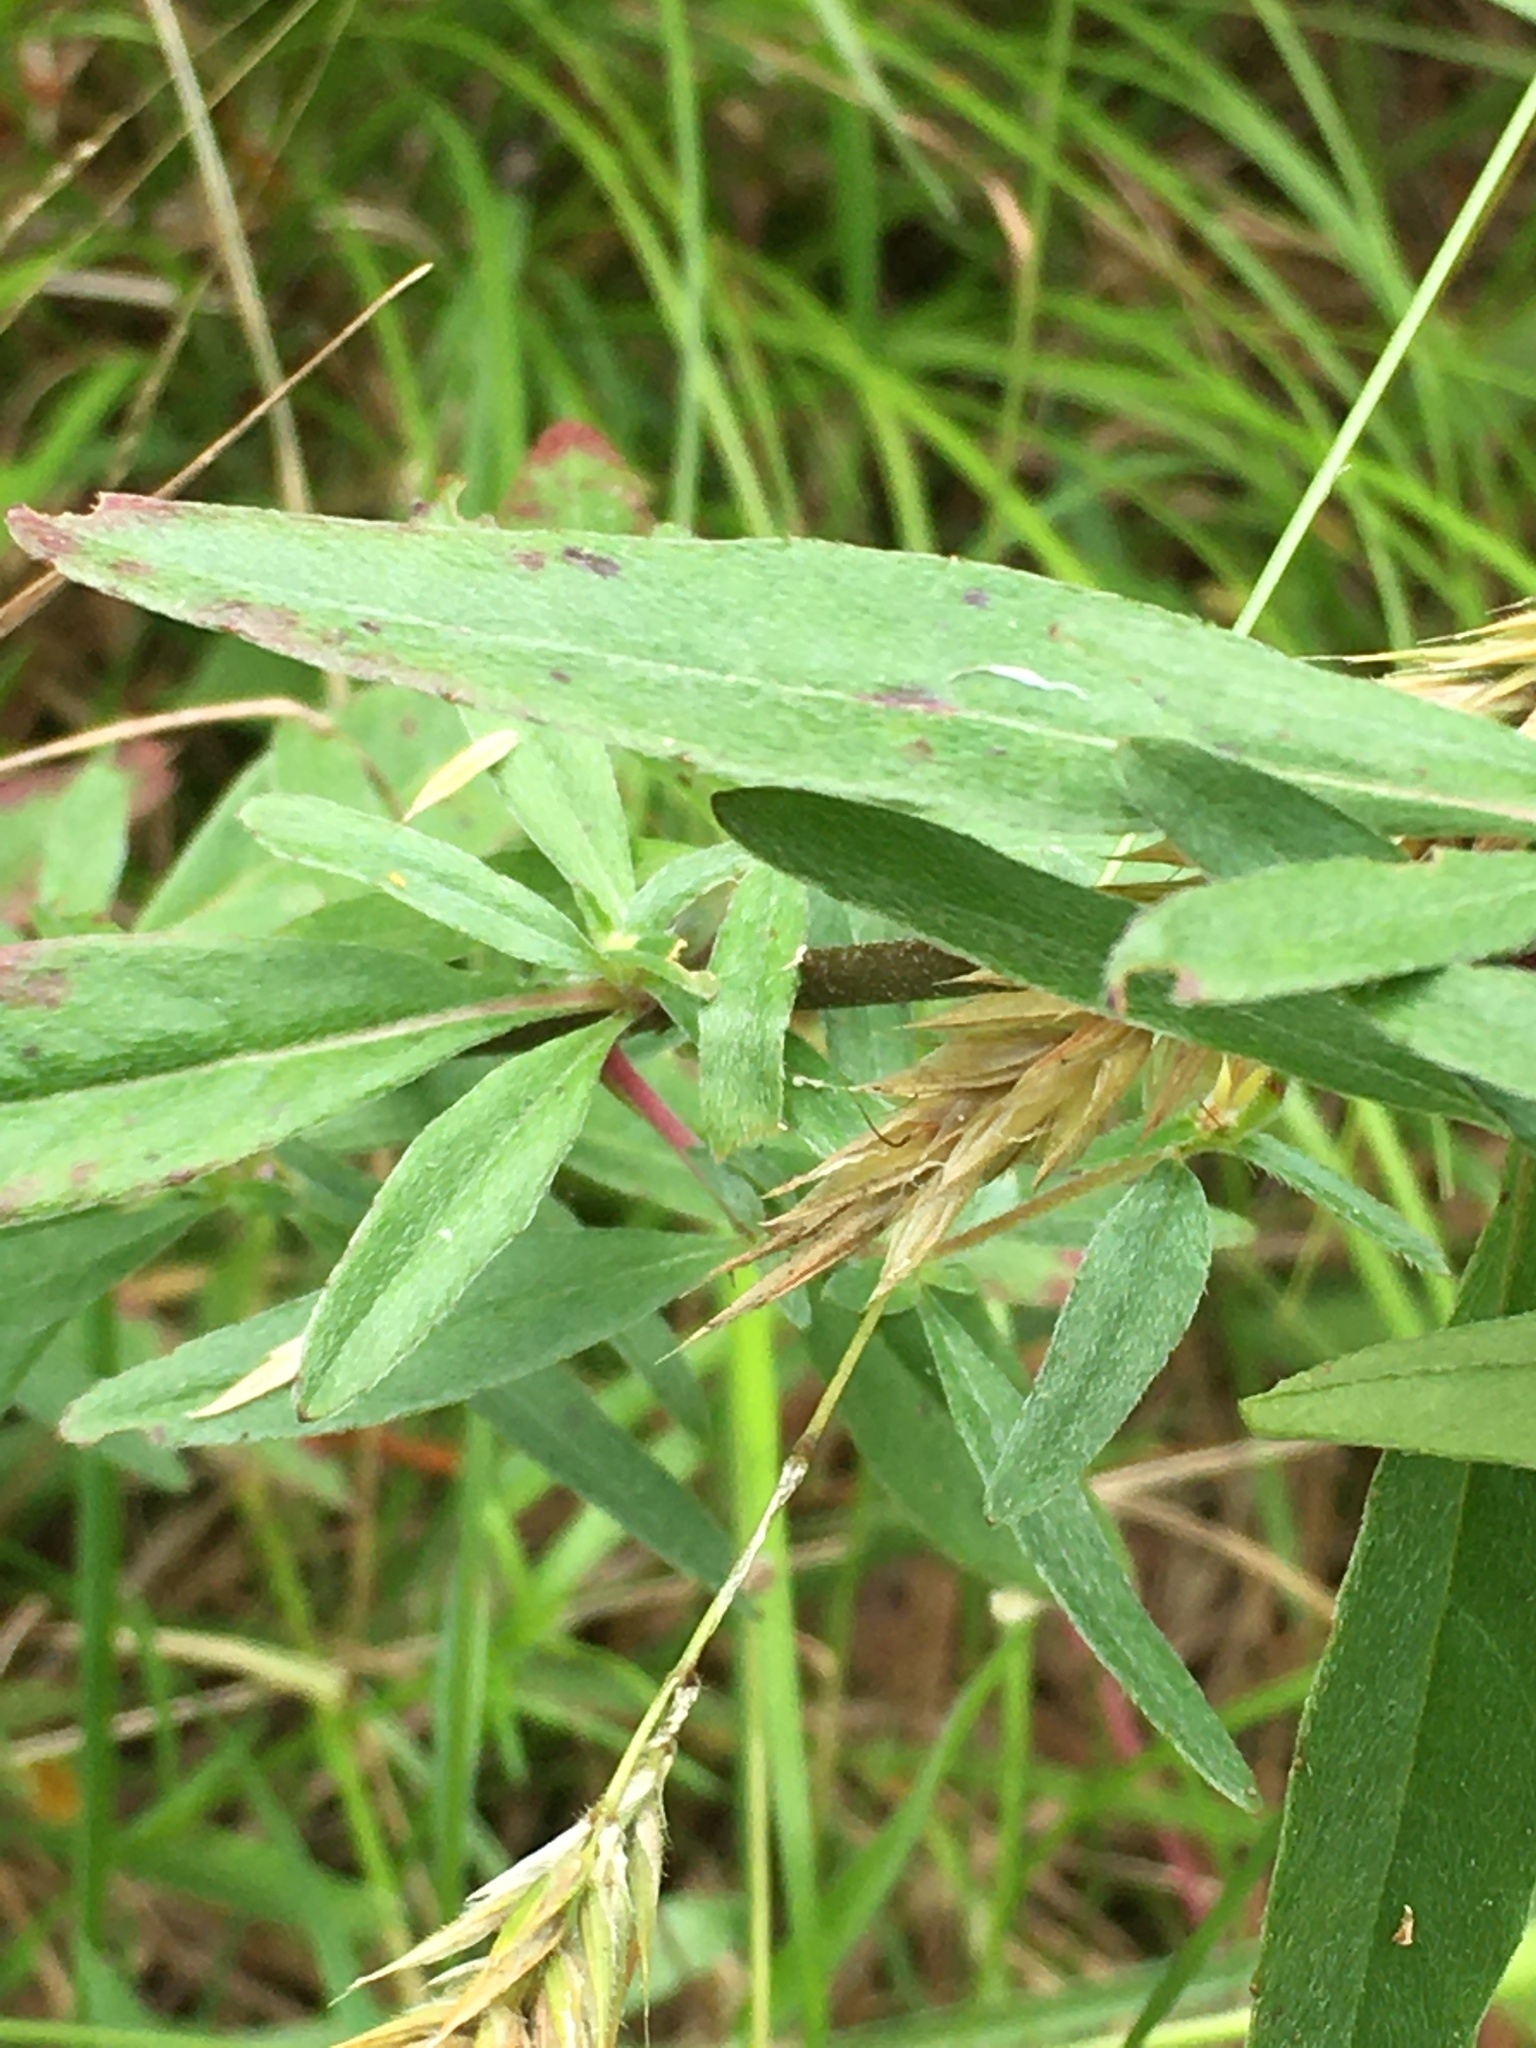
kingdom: Plantae
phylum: Tracheophyta
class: Magnoliopsida
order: Myrtales
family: Onagraceae
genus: Oenothera
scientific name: Oenothera fruticosa
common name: Southern sundrops
